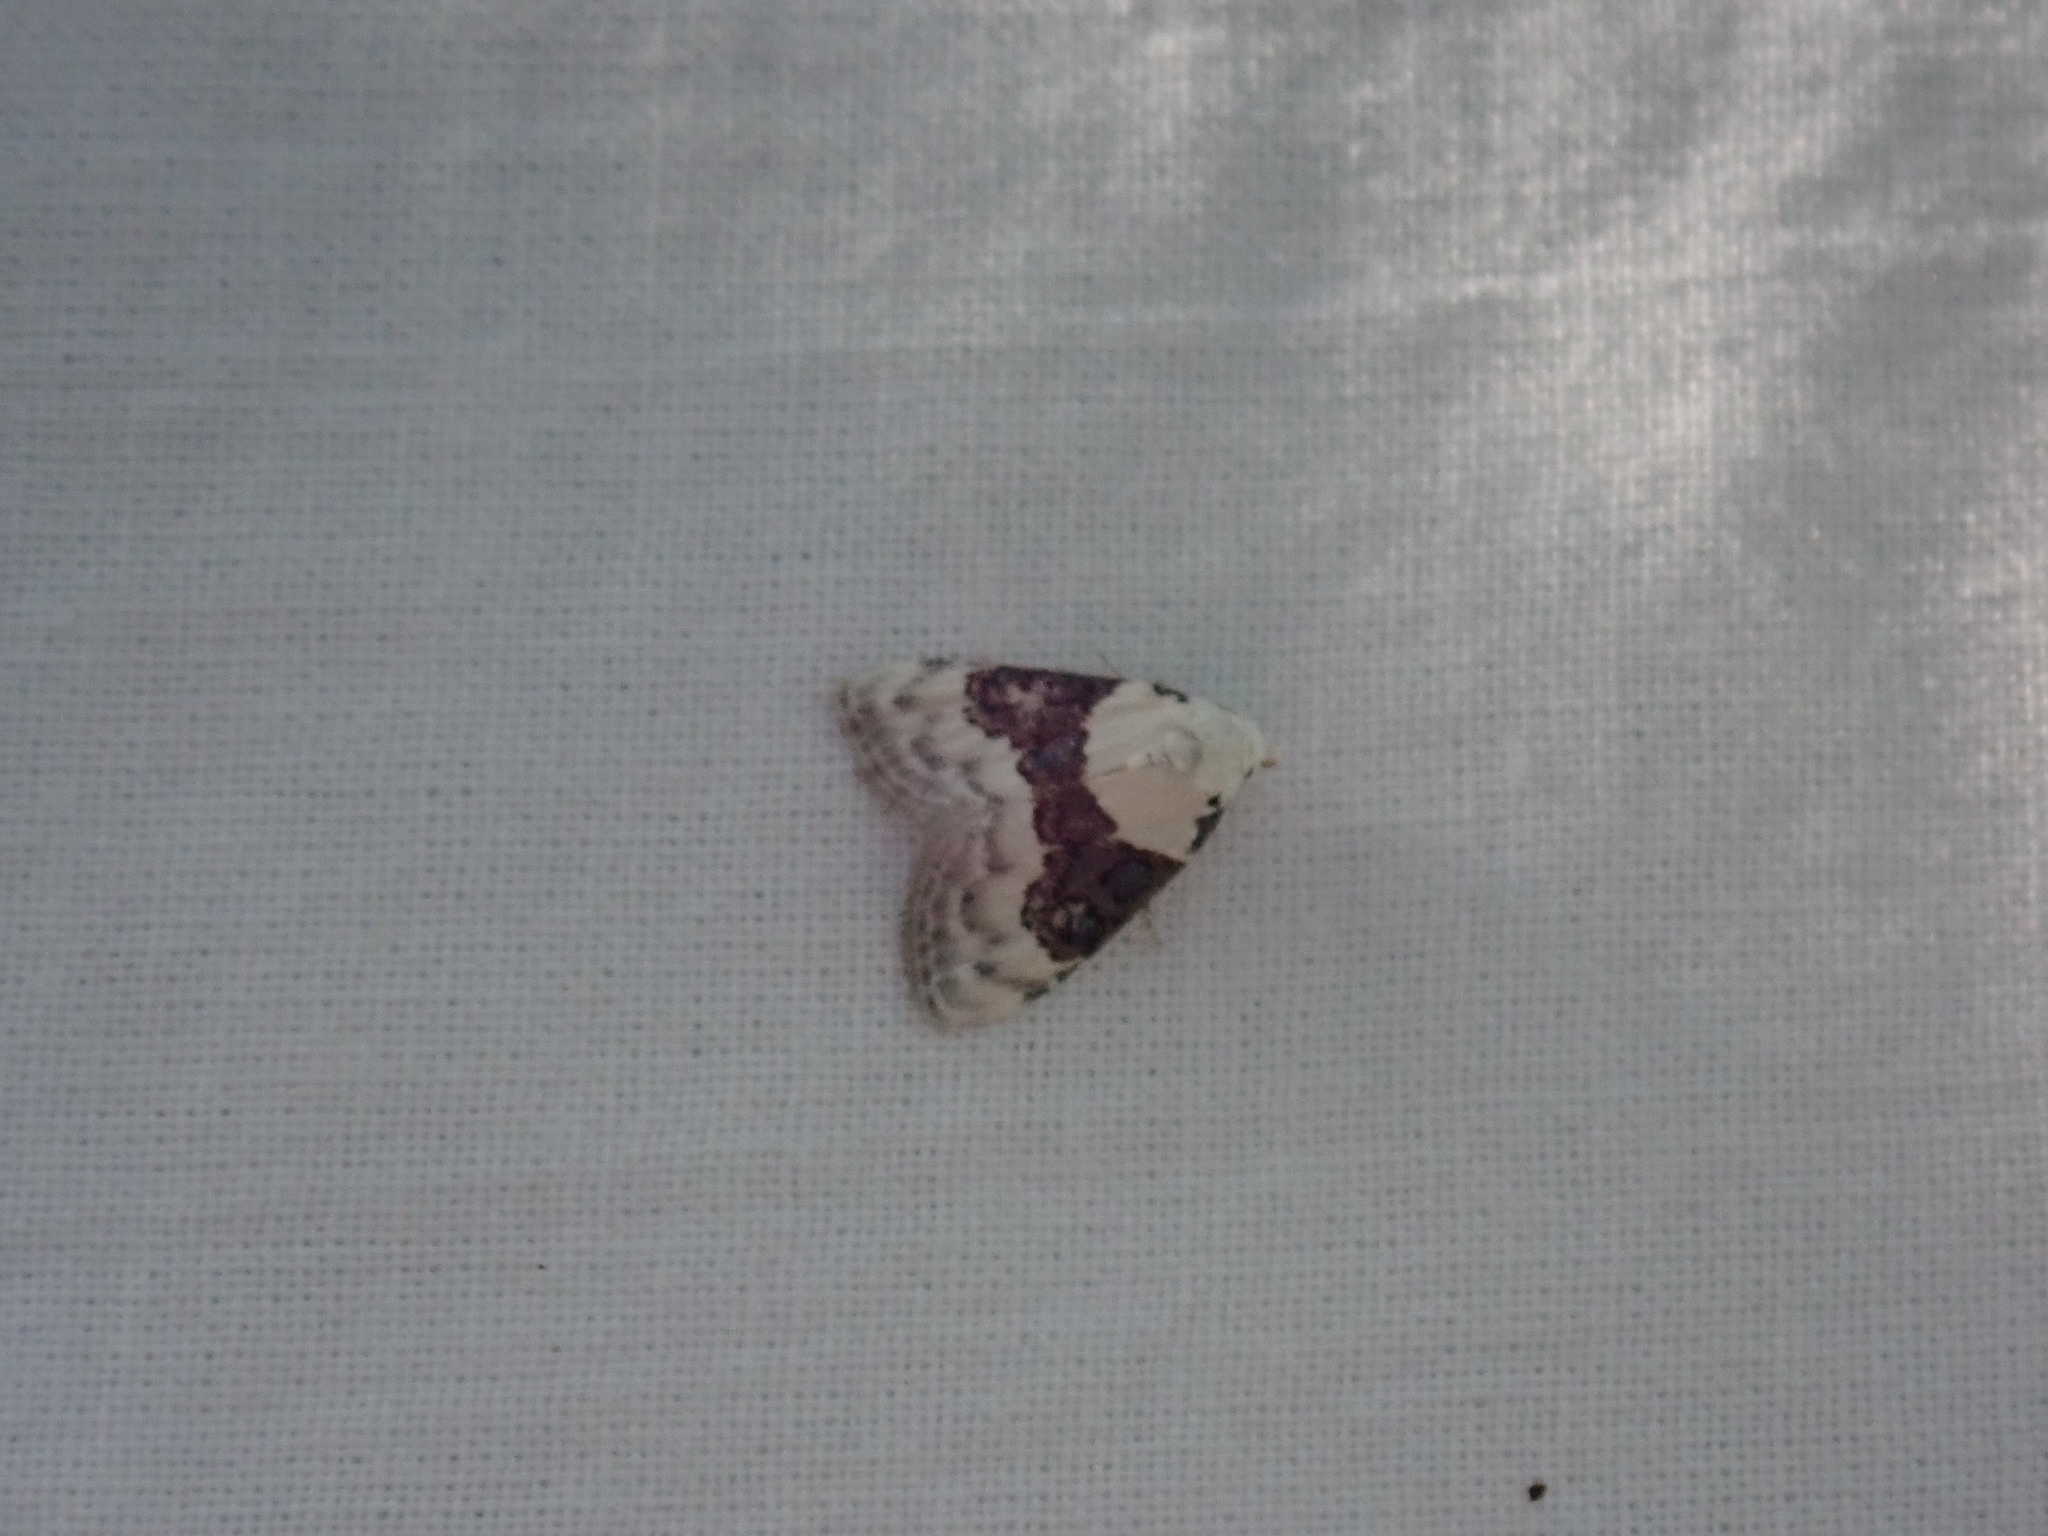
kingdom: Animalia
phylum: Arthropoda
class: Insecta
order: Lepidoptera
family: Nolidae
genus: Nola
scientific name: Nola pustulata
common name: Sharp-blotched nola moth
